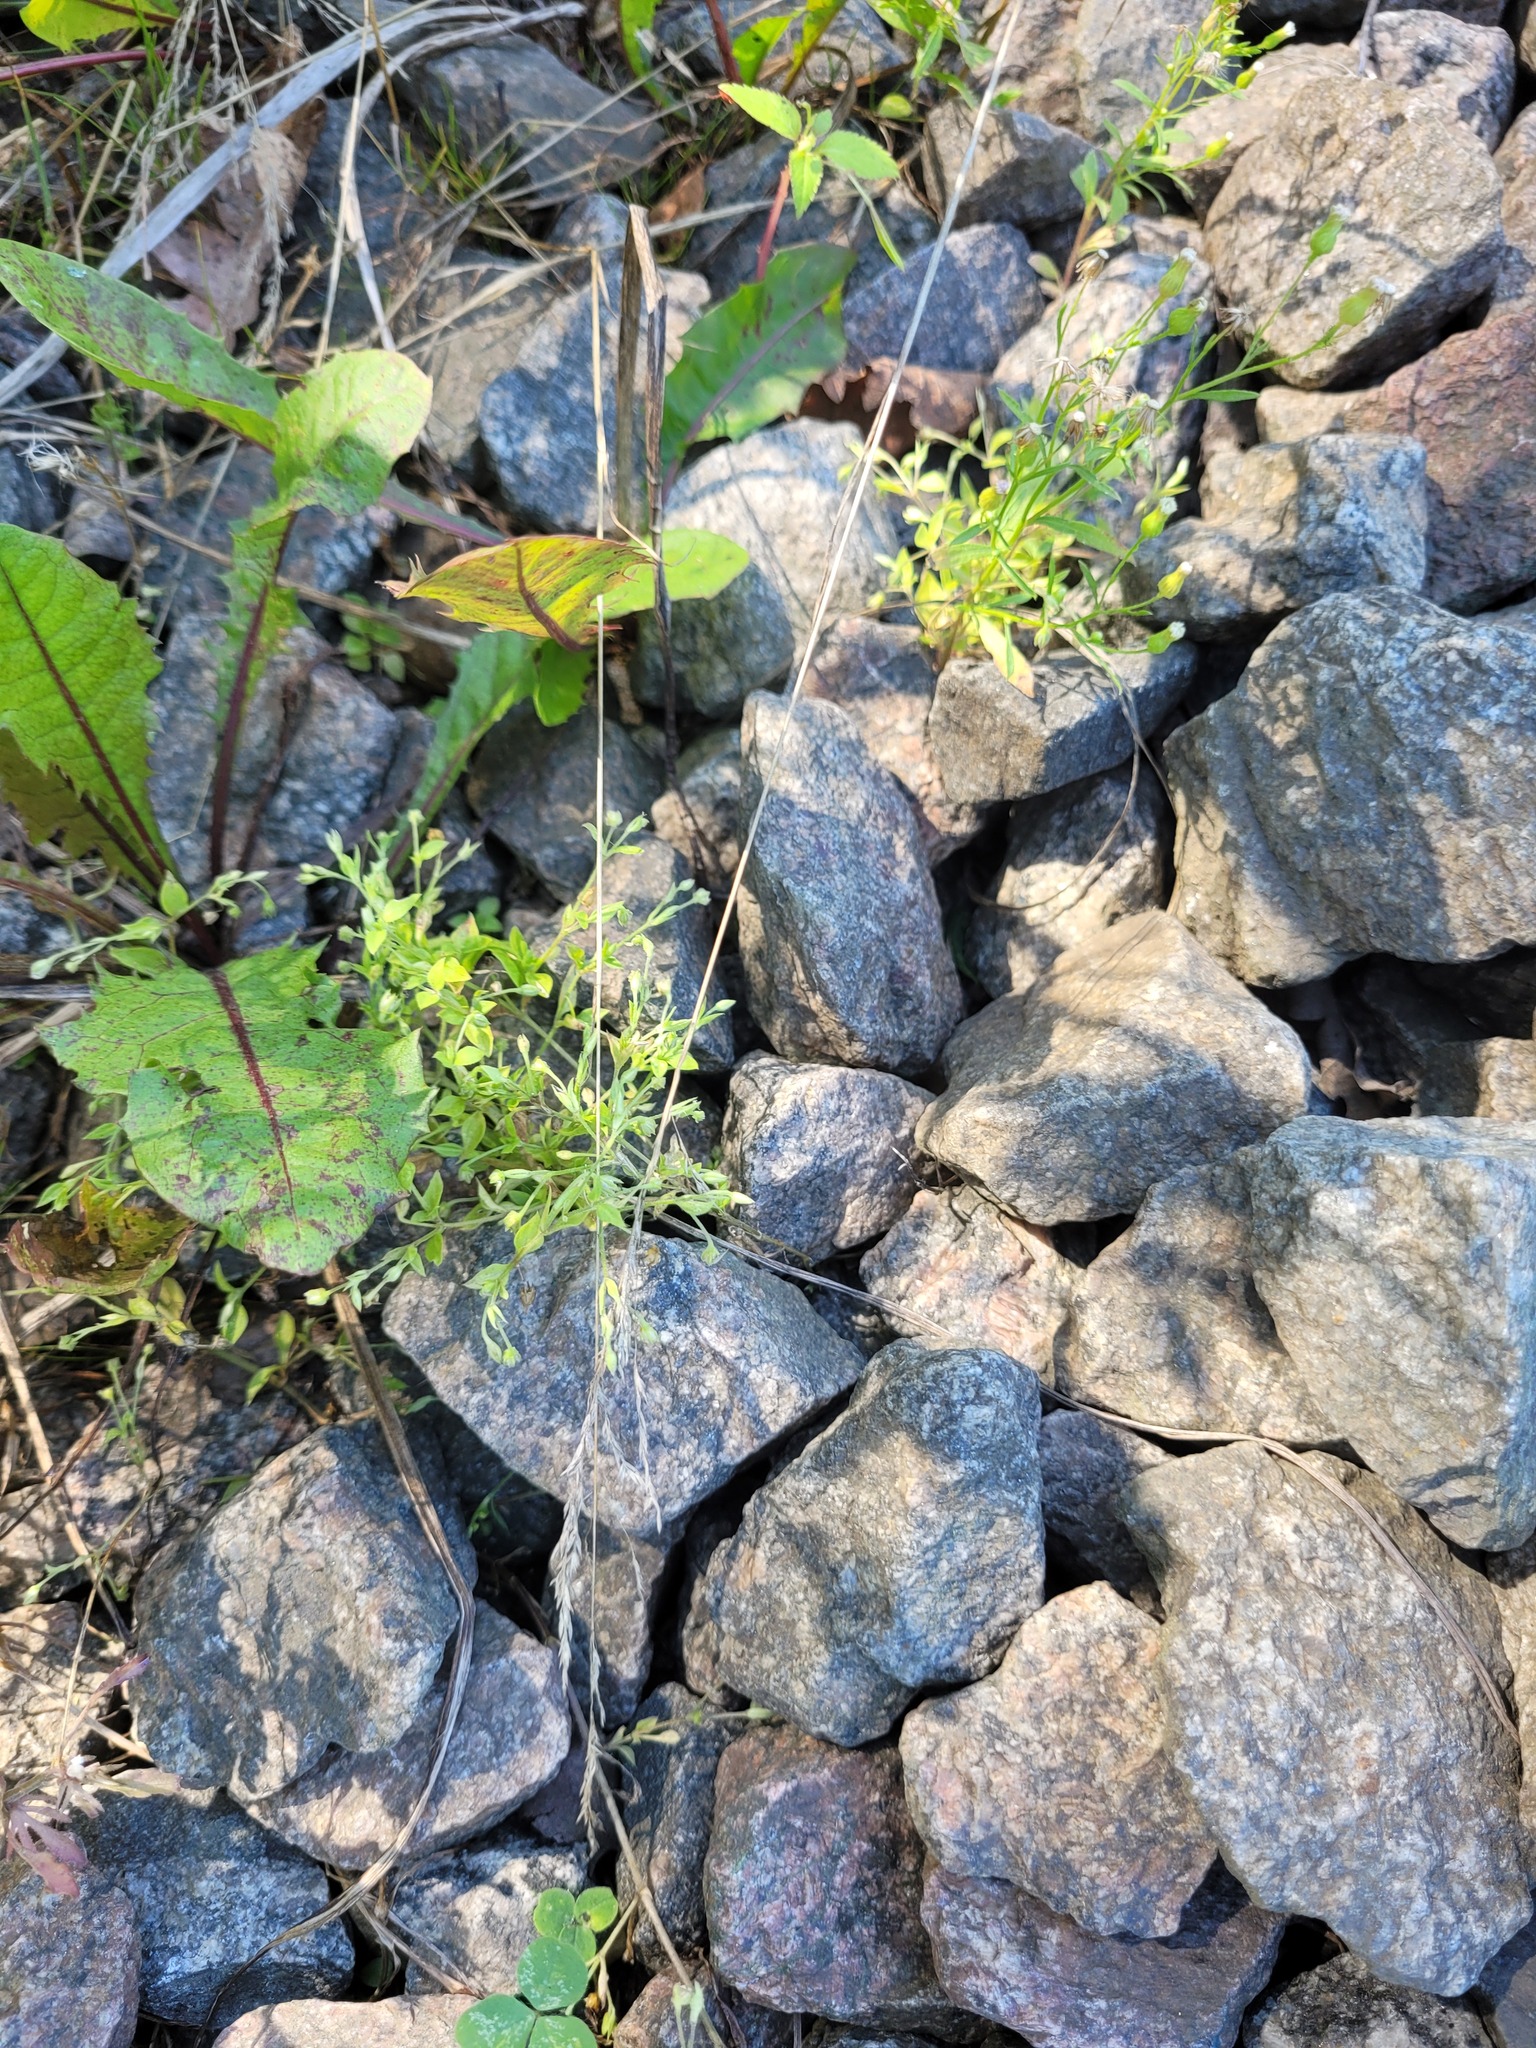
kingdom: Plantae
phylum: Tracheophyta
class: Magnoliopsida
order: Caryophyllales
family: Caryophyllaceae
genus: Moehringia
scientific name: Moehringia trinervia
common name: Three-nerved sandwort
